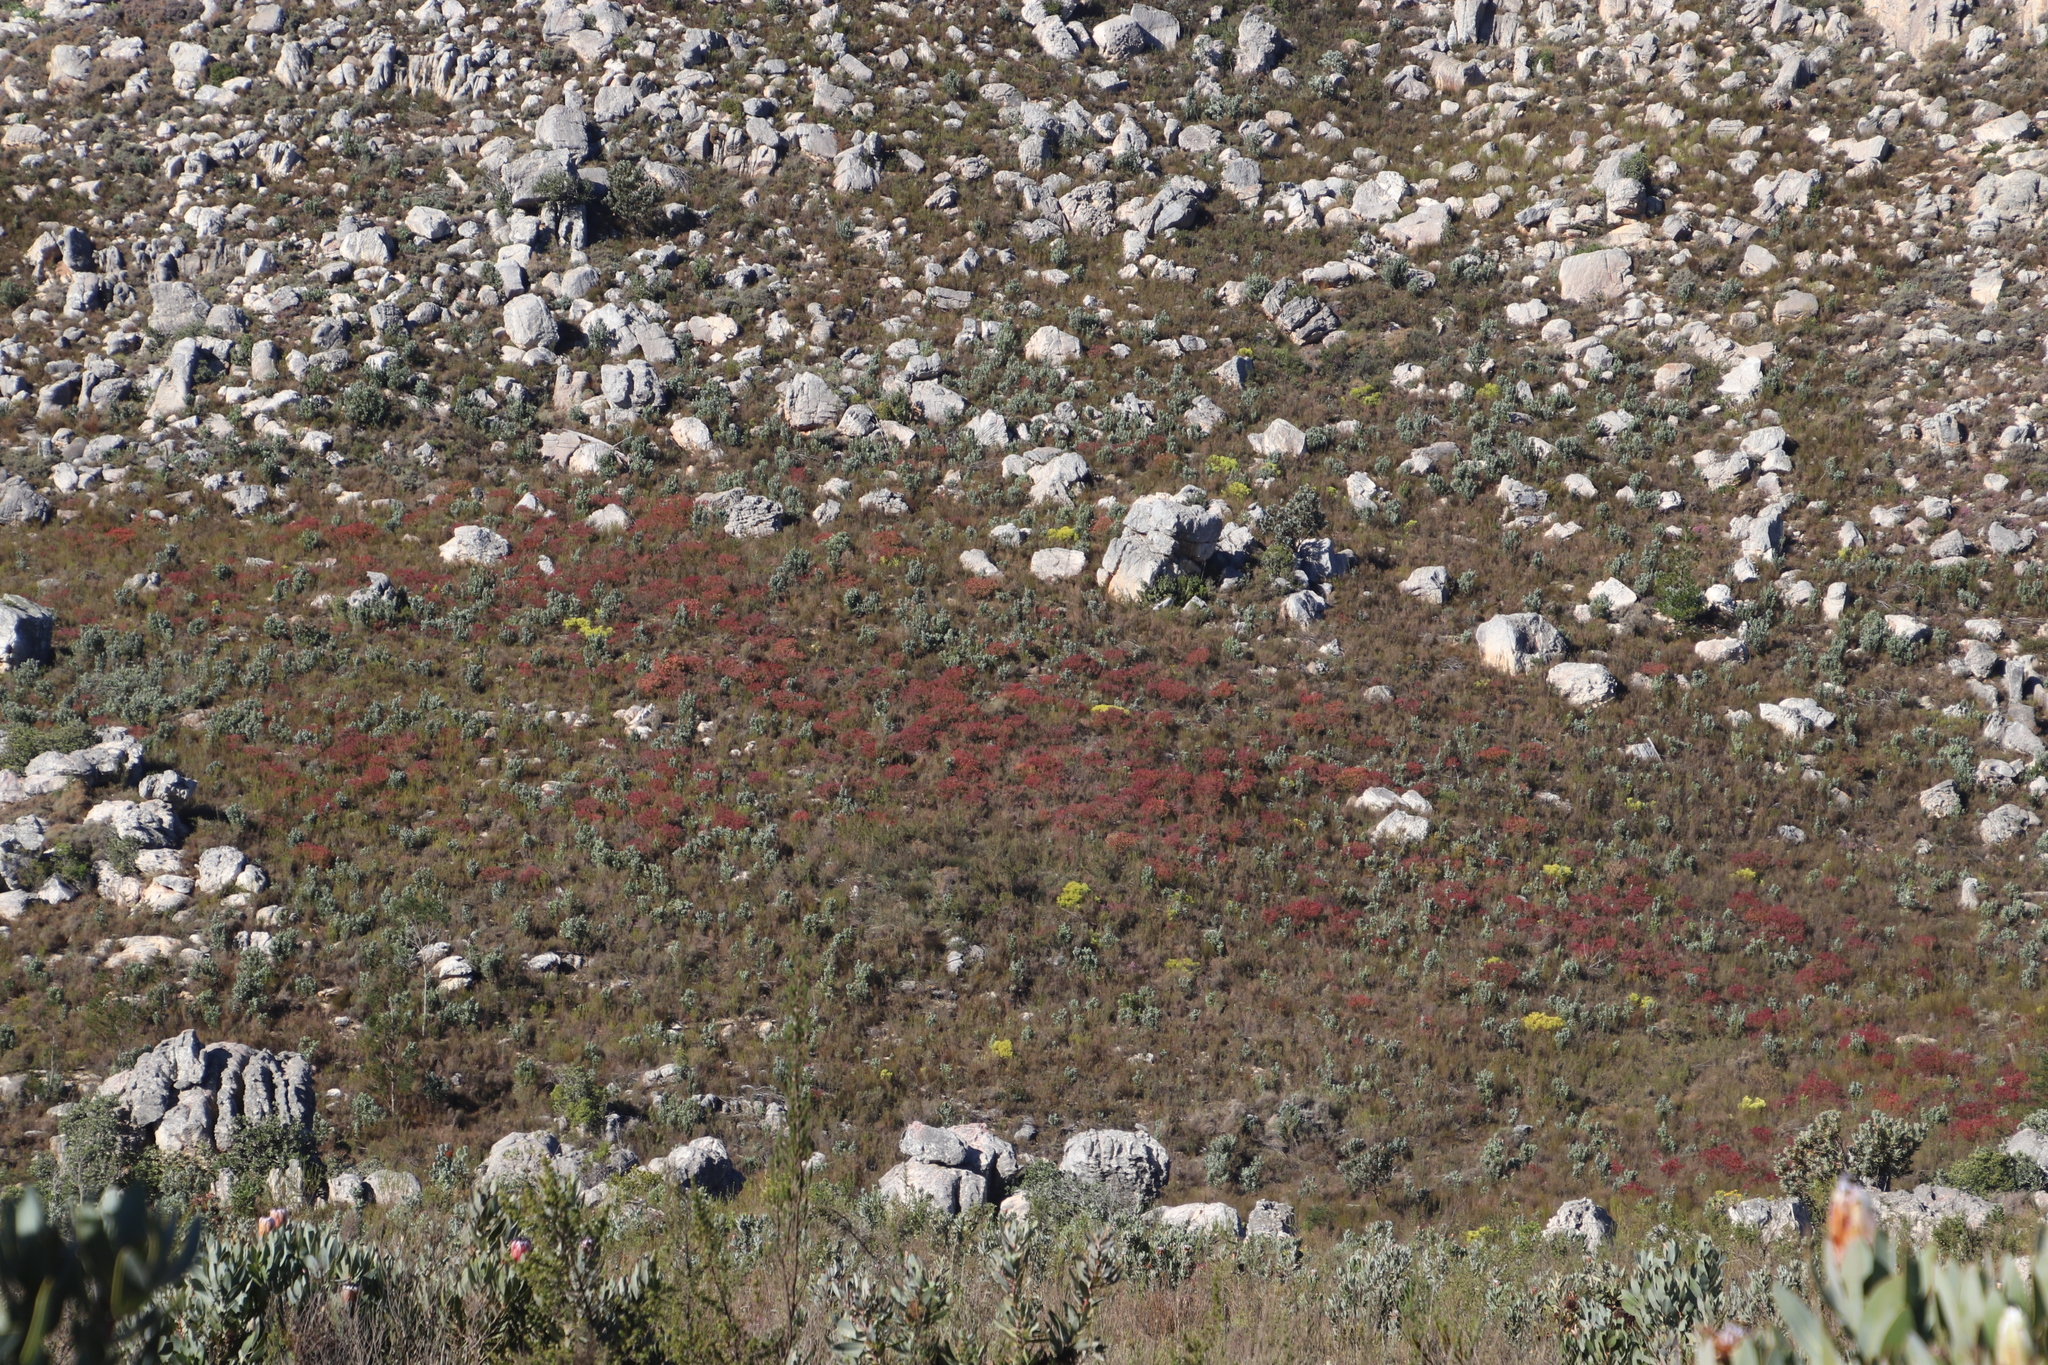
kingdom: Plantae
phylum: Tracheophyta
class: Magnoliopsida
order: Proteales
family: Proteaceae
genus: Leucadendron
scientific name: Leucadendron glaberrimum
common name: Common oily conebush
